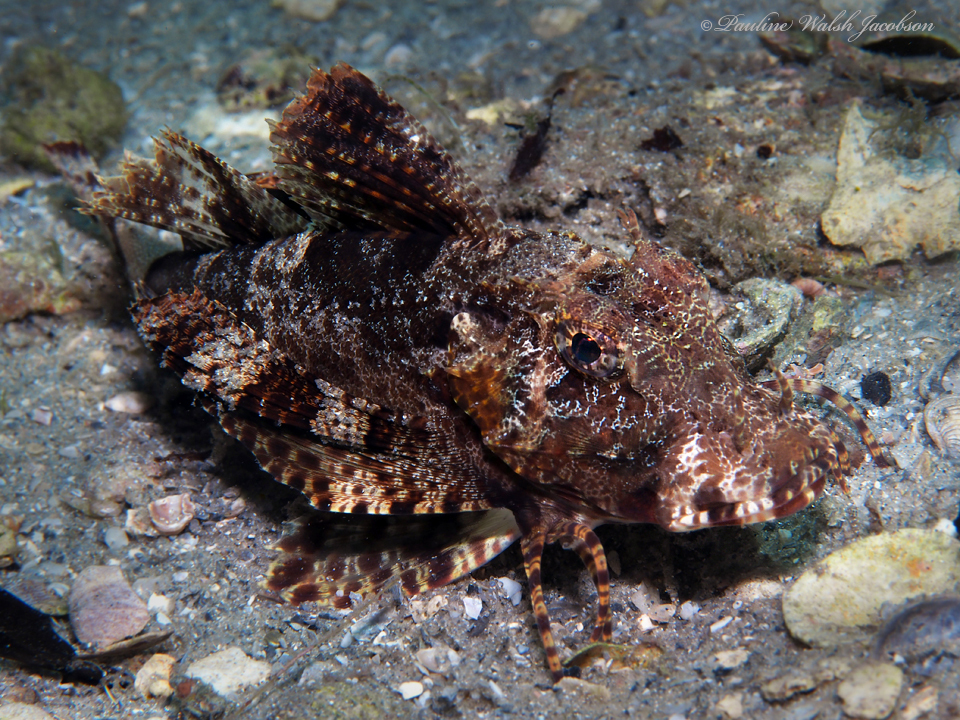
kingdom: Animalia
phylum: Chordata
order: Scorpaeniformes
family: Triglidae
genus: Prionotus
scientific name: Prionotus ophryas
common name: Bandtail searobin
